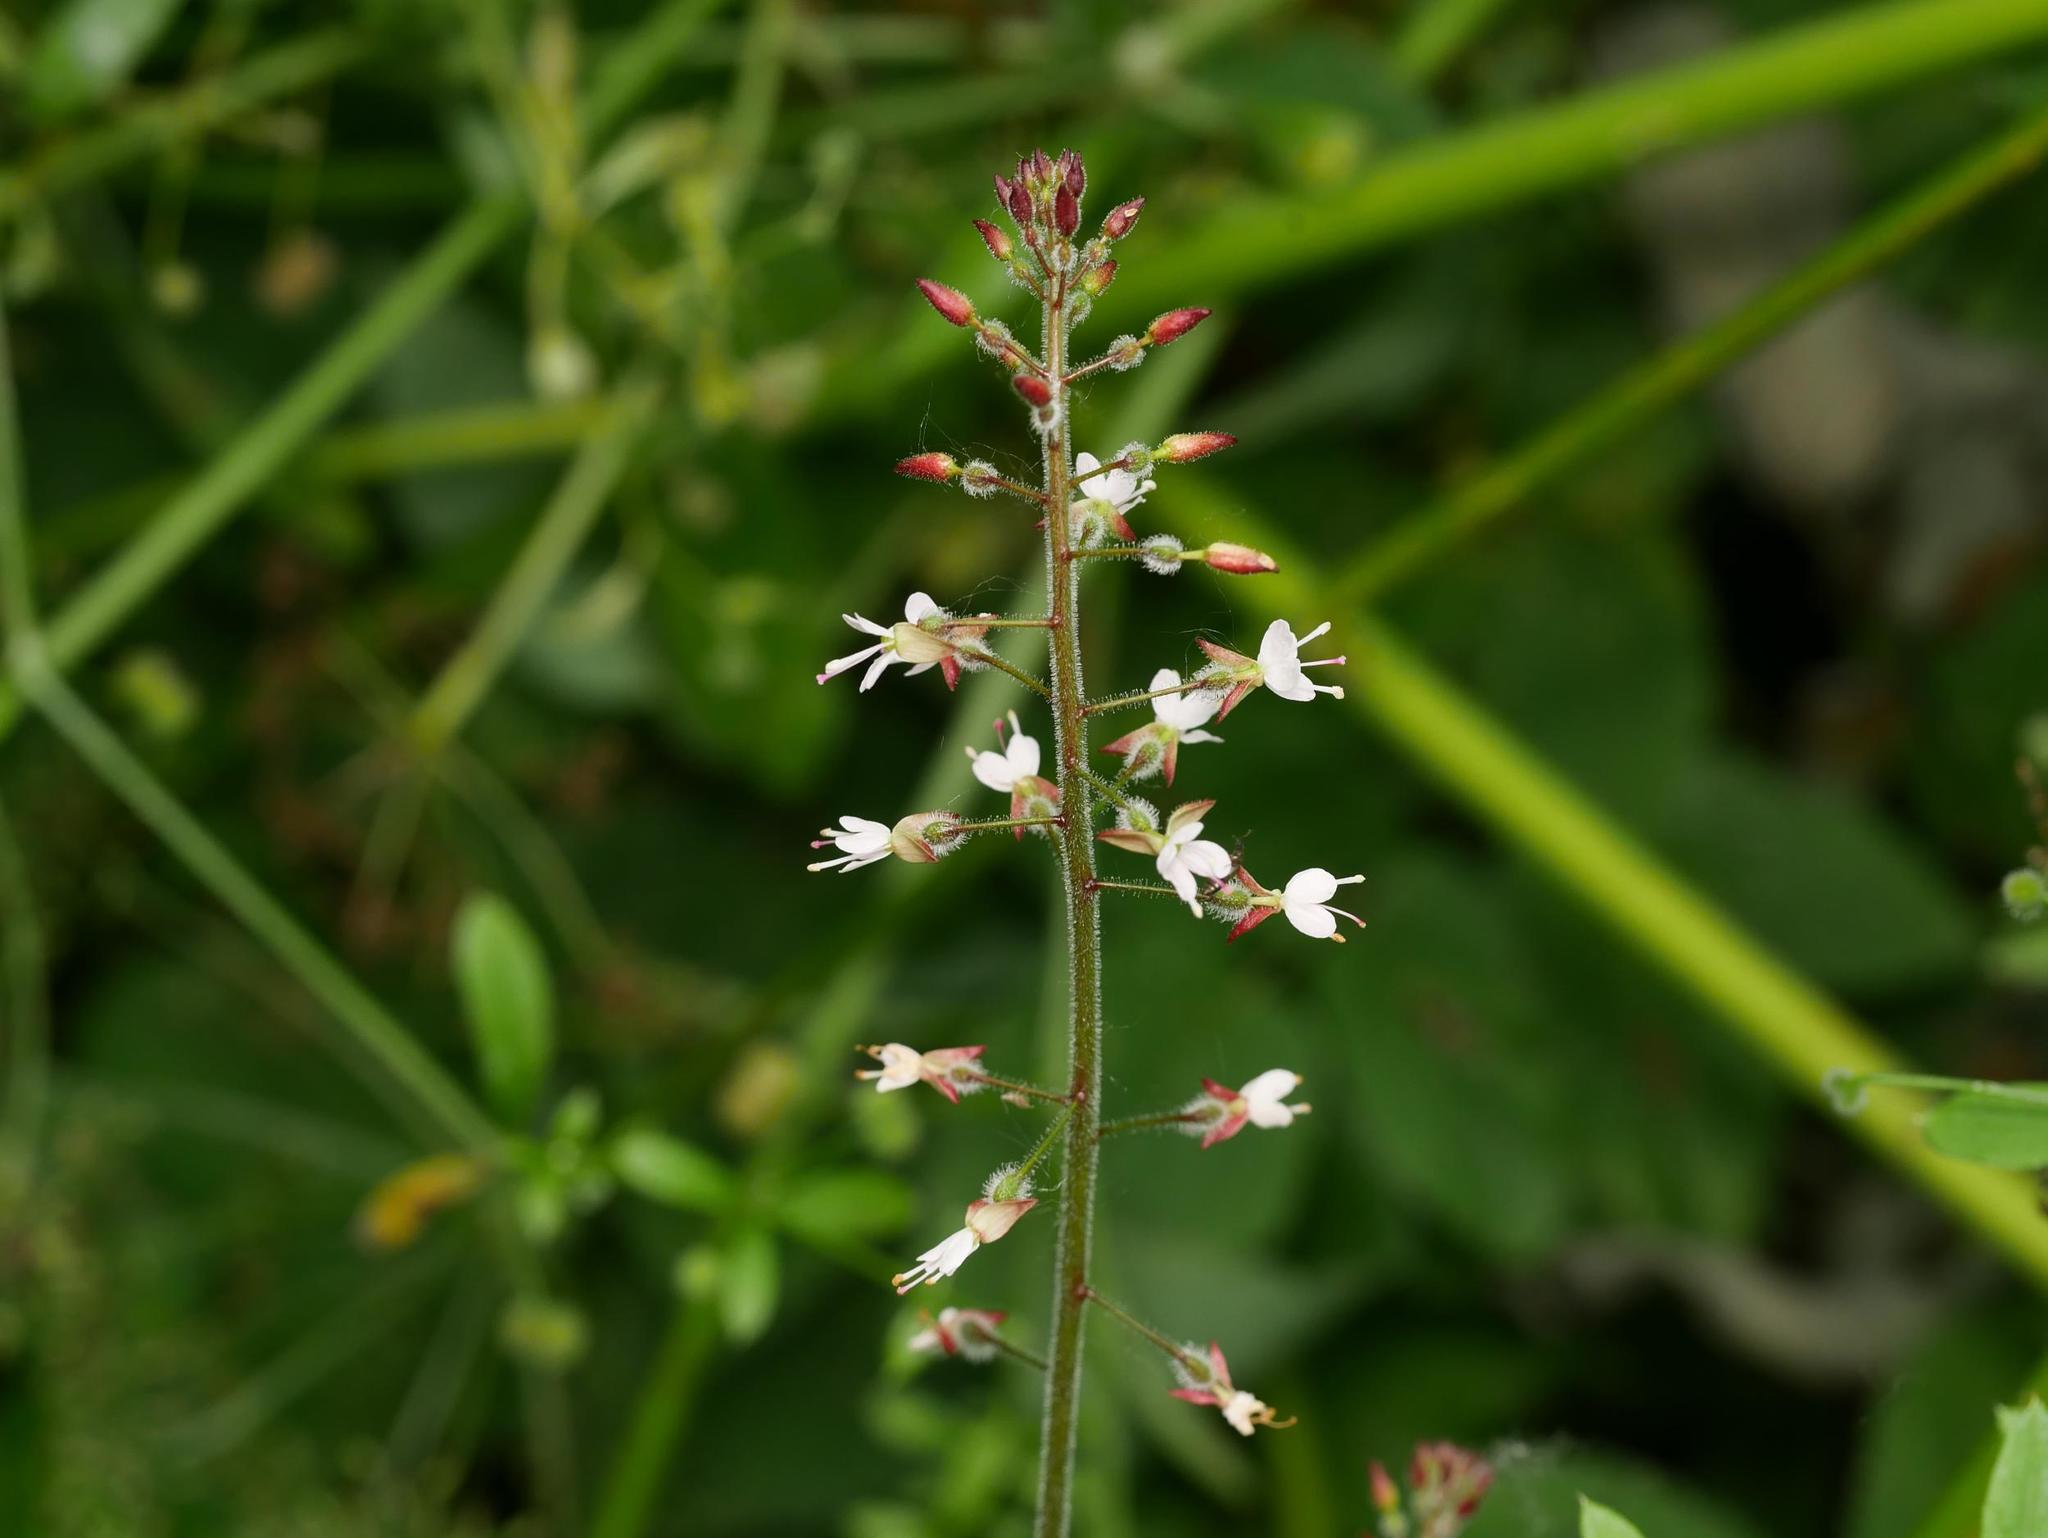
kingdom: Plantae
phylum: Tracheophyta
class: Magnoliopsida
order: Myrtales
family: Onagraceae
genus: Circaea
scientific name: Circaea lutetiana
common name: Enchanter's-nightshade
